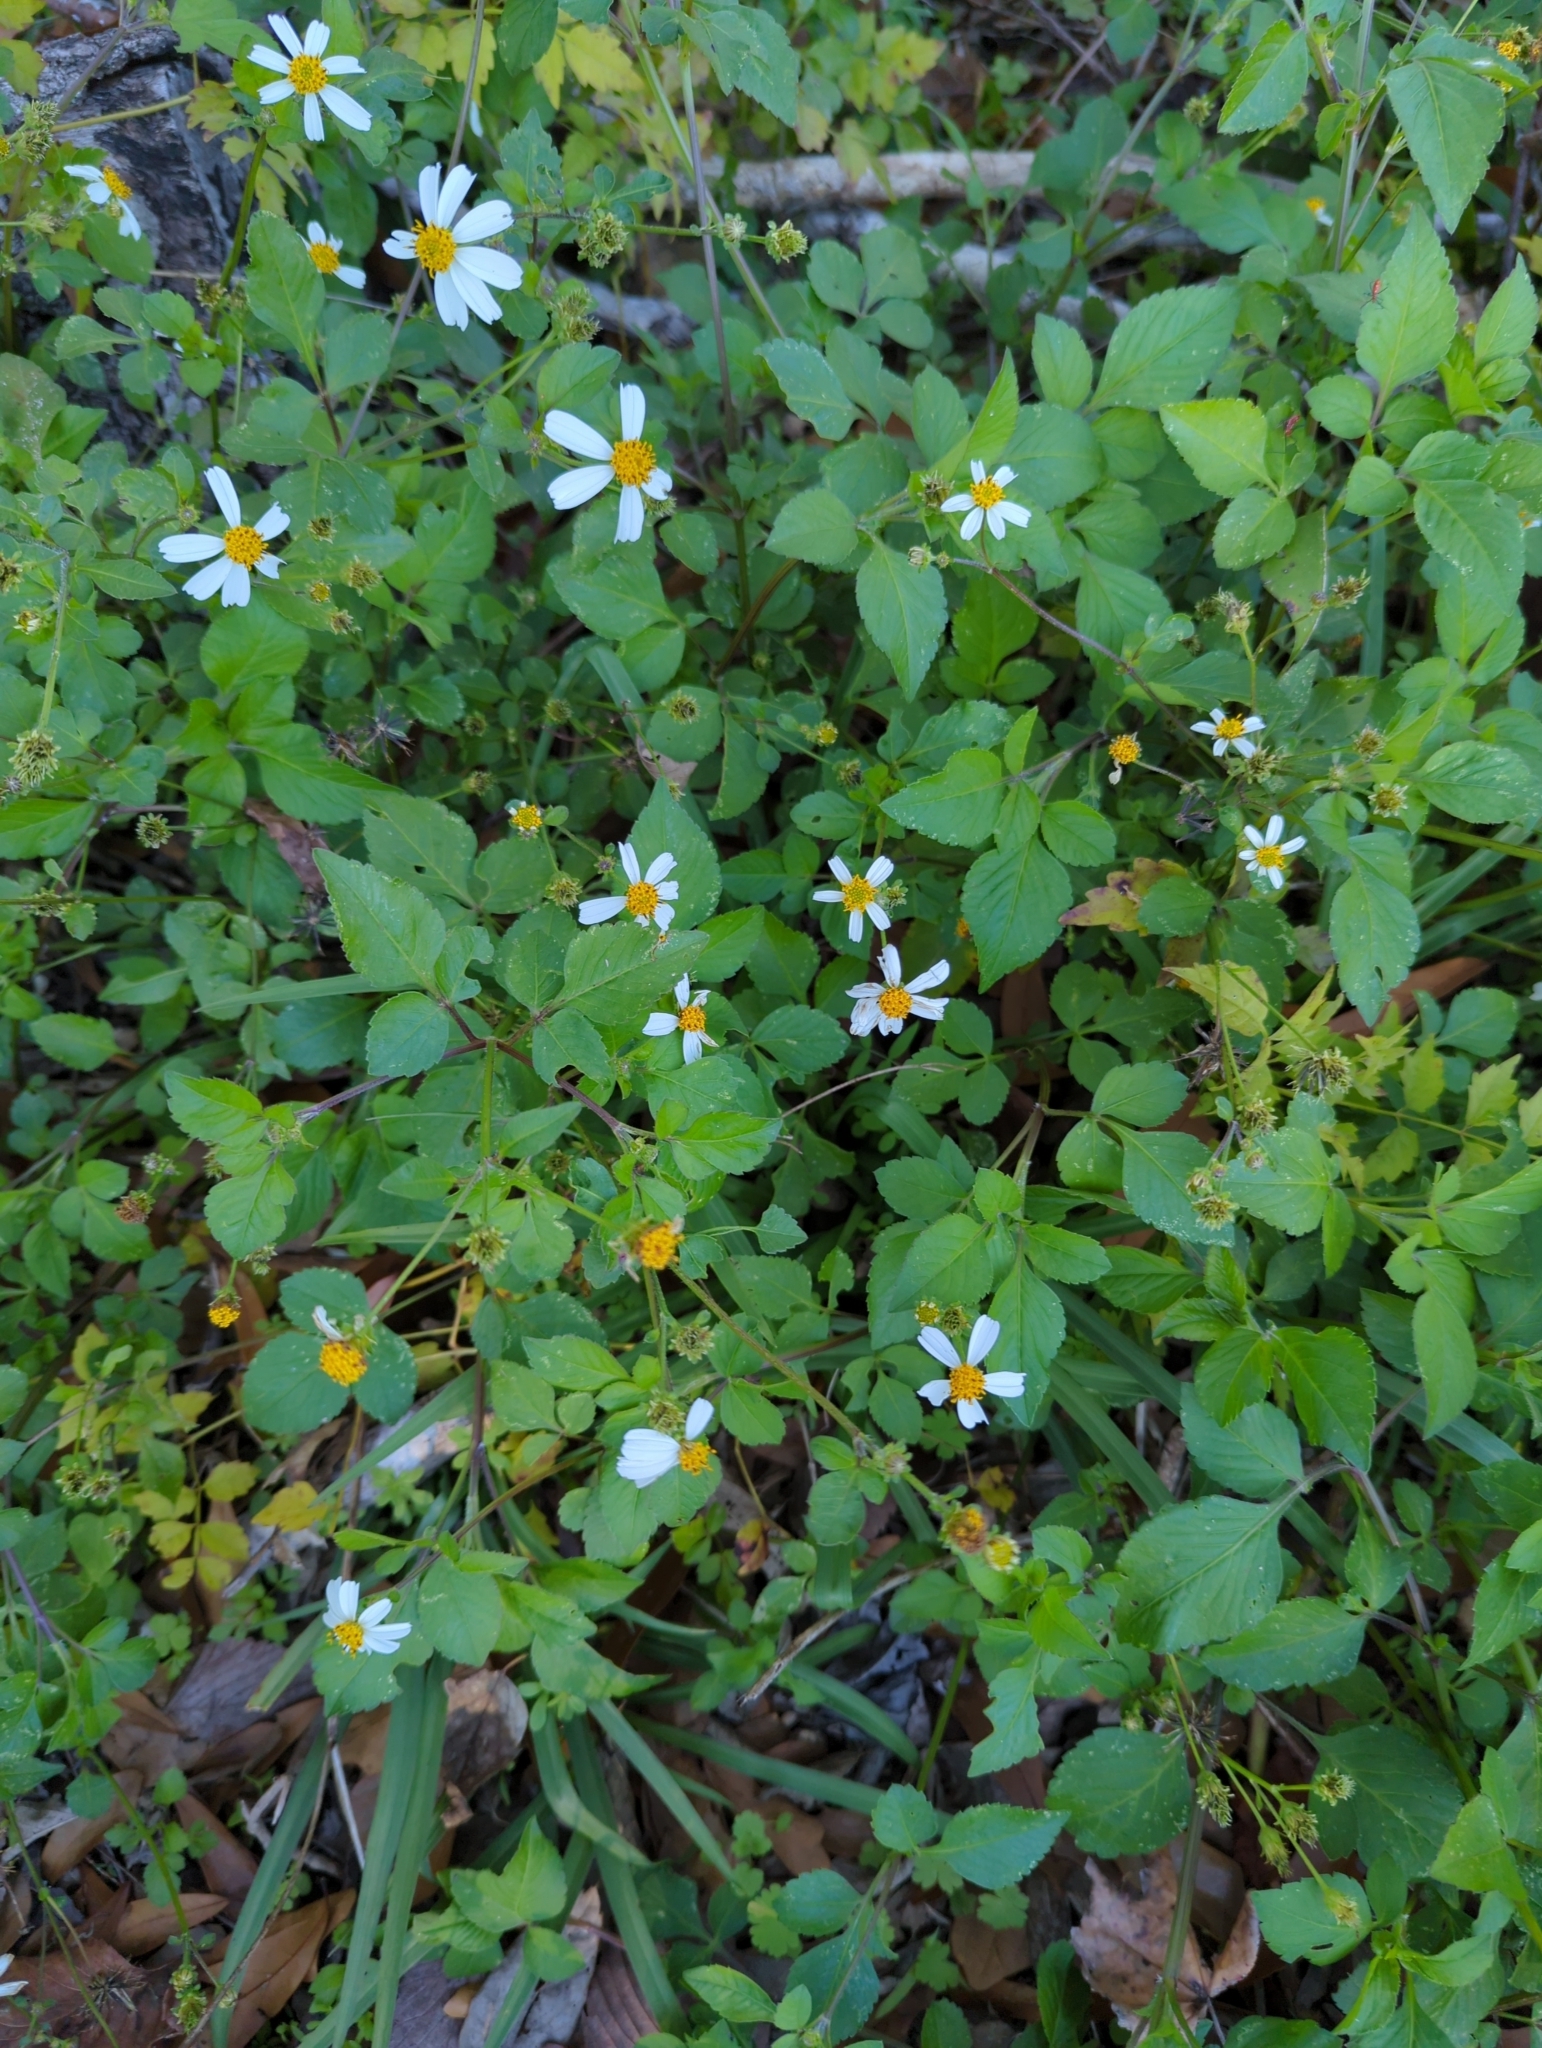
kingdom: Plantae
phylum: Tracheophyta
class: Magnoliopsida
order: Asterales
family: Asteraceae
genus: Bidens
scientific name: Bidens alba
